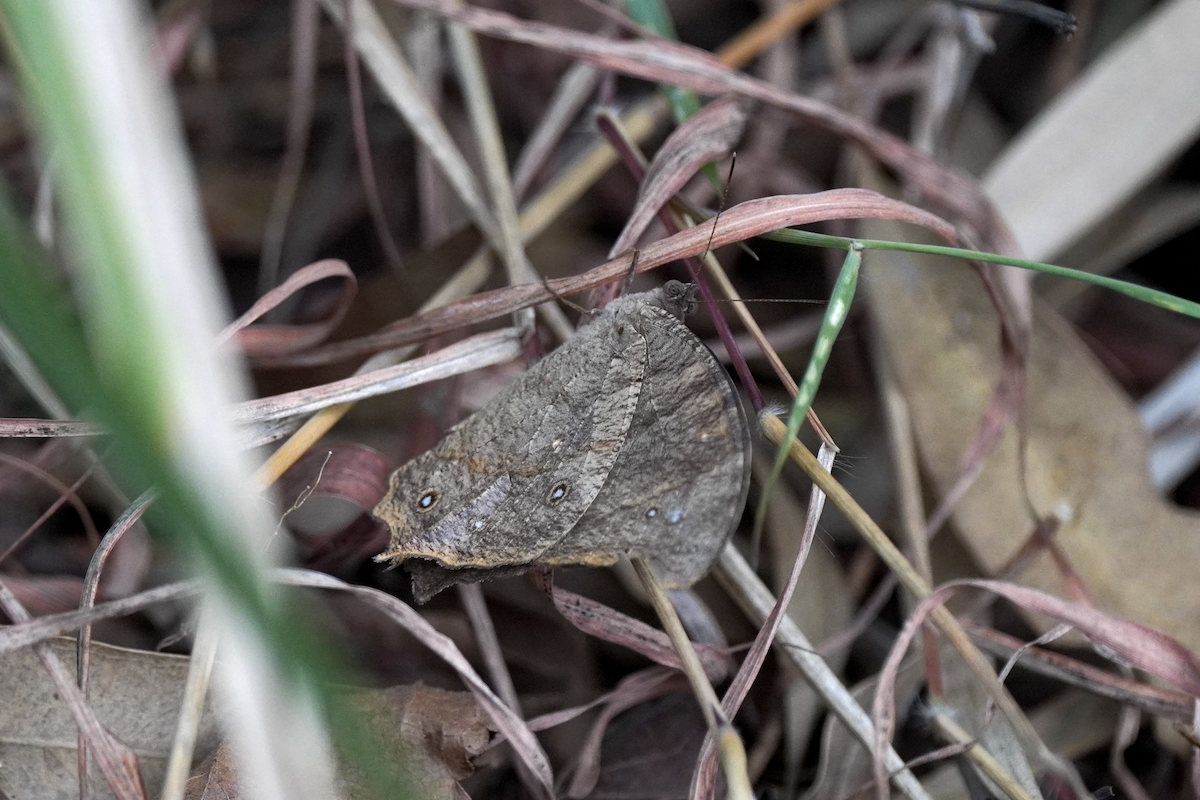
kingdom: Animalia
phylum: Arthropoda
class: Insecta
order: Lepidoptera
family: Nymphalidae
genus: Melanitis
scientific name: Melanitis leda
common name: Twilight brown
